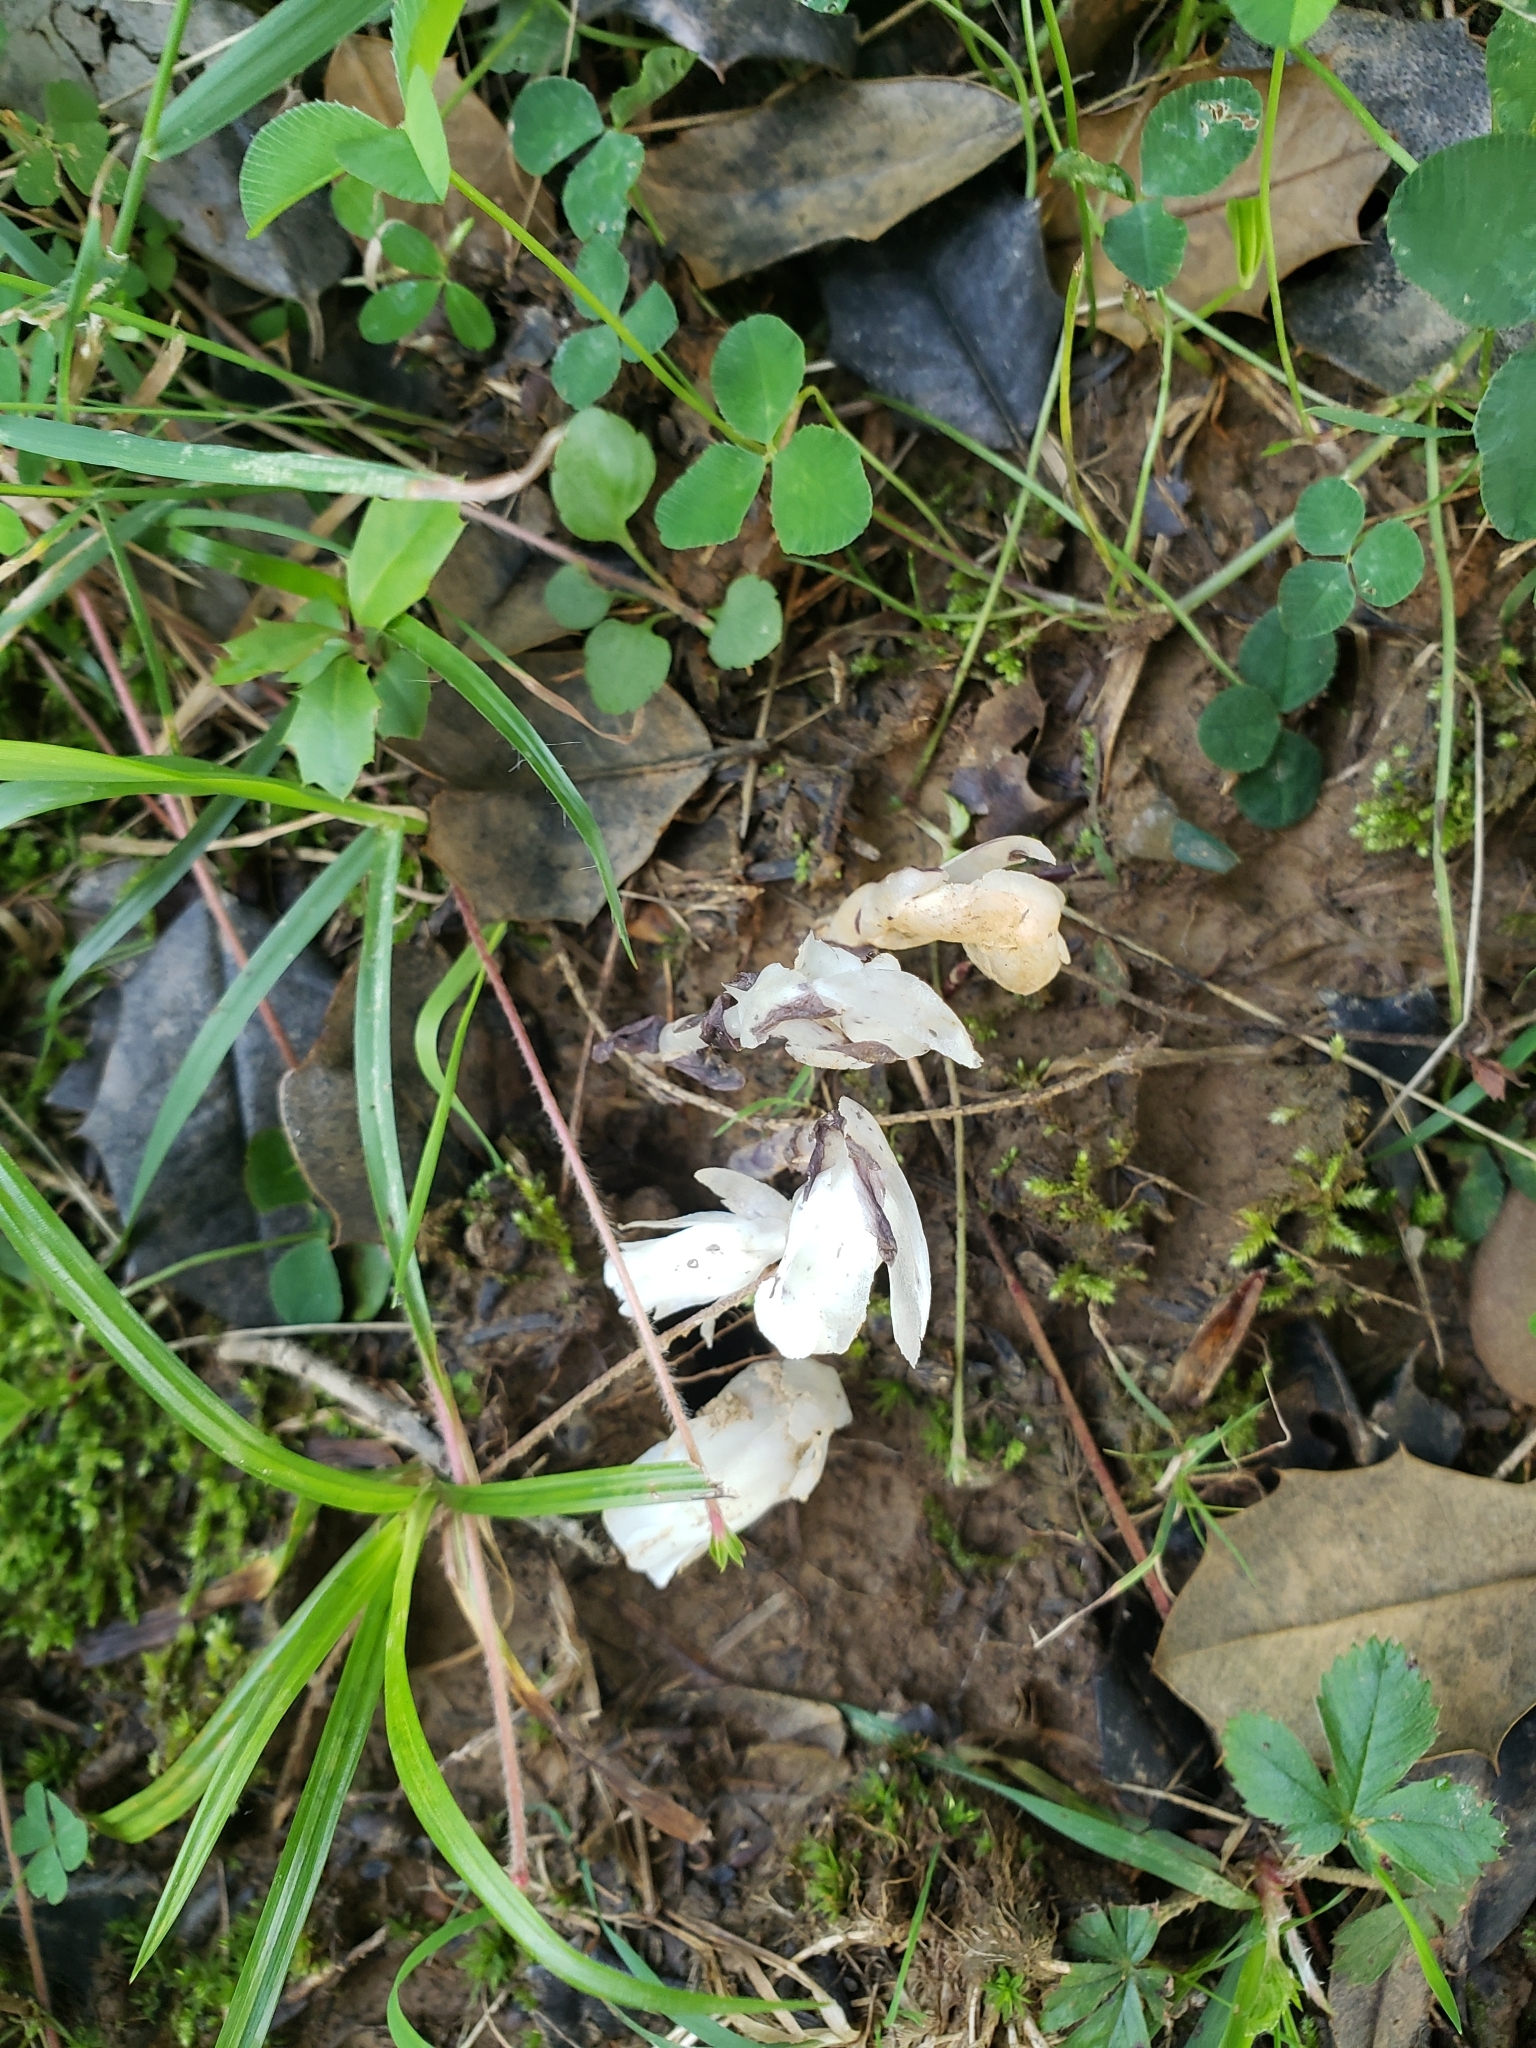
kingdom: Plantae
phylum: Tracheophyta
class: Magnoliopsida
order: Ericales
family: Ericaceae
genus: Monotropa
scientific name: Monotropa uniflora
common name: Convulsion root
